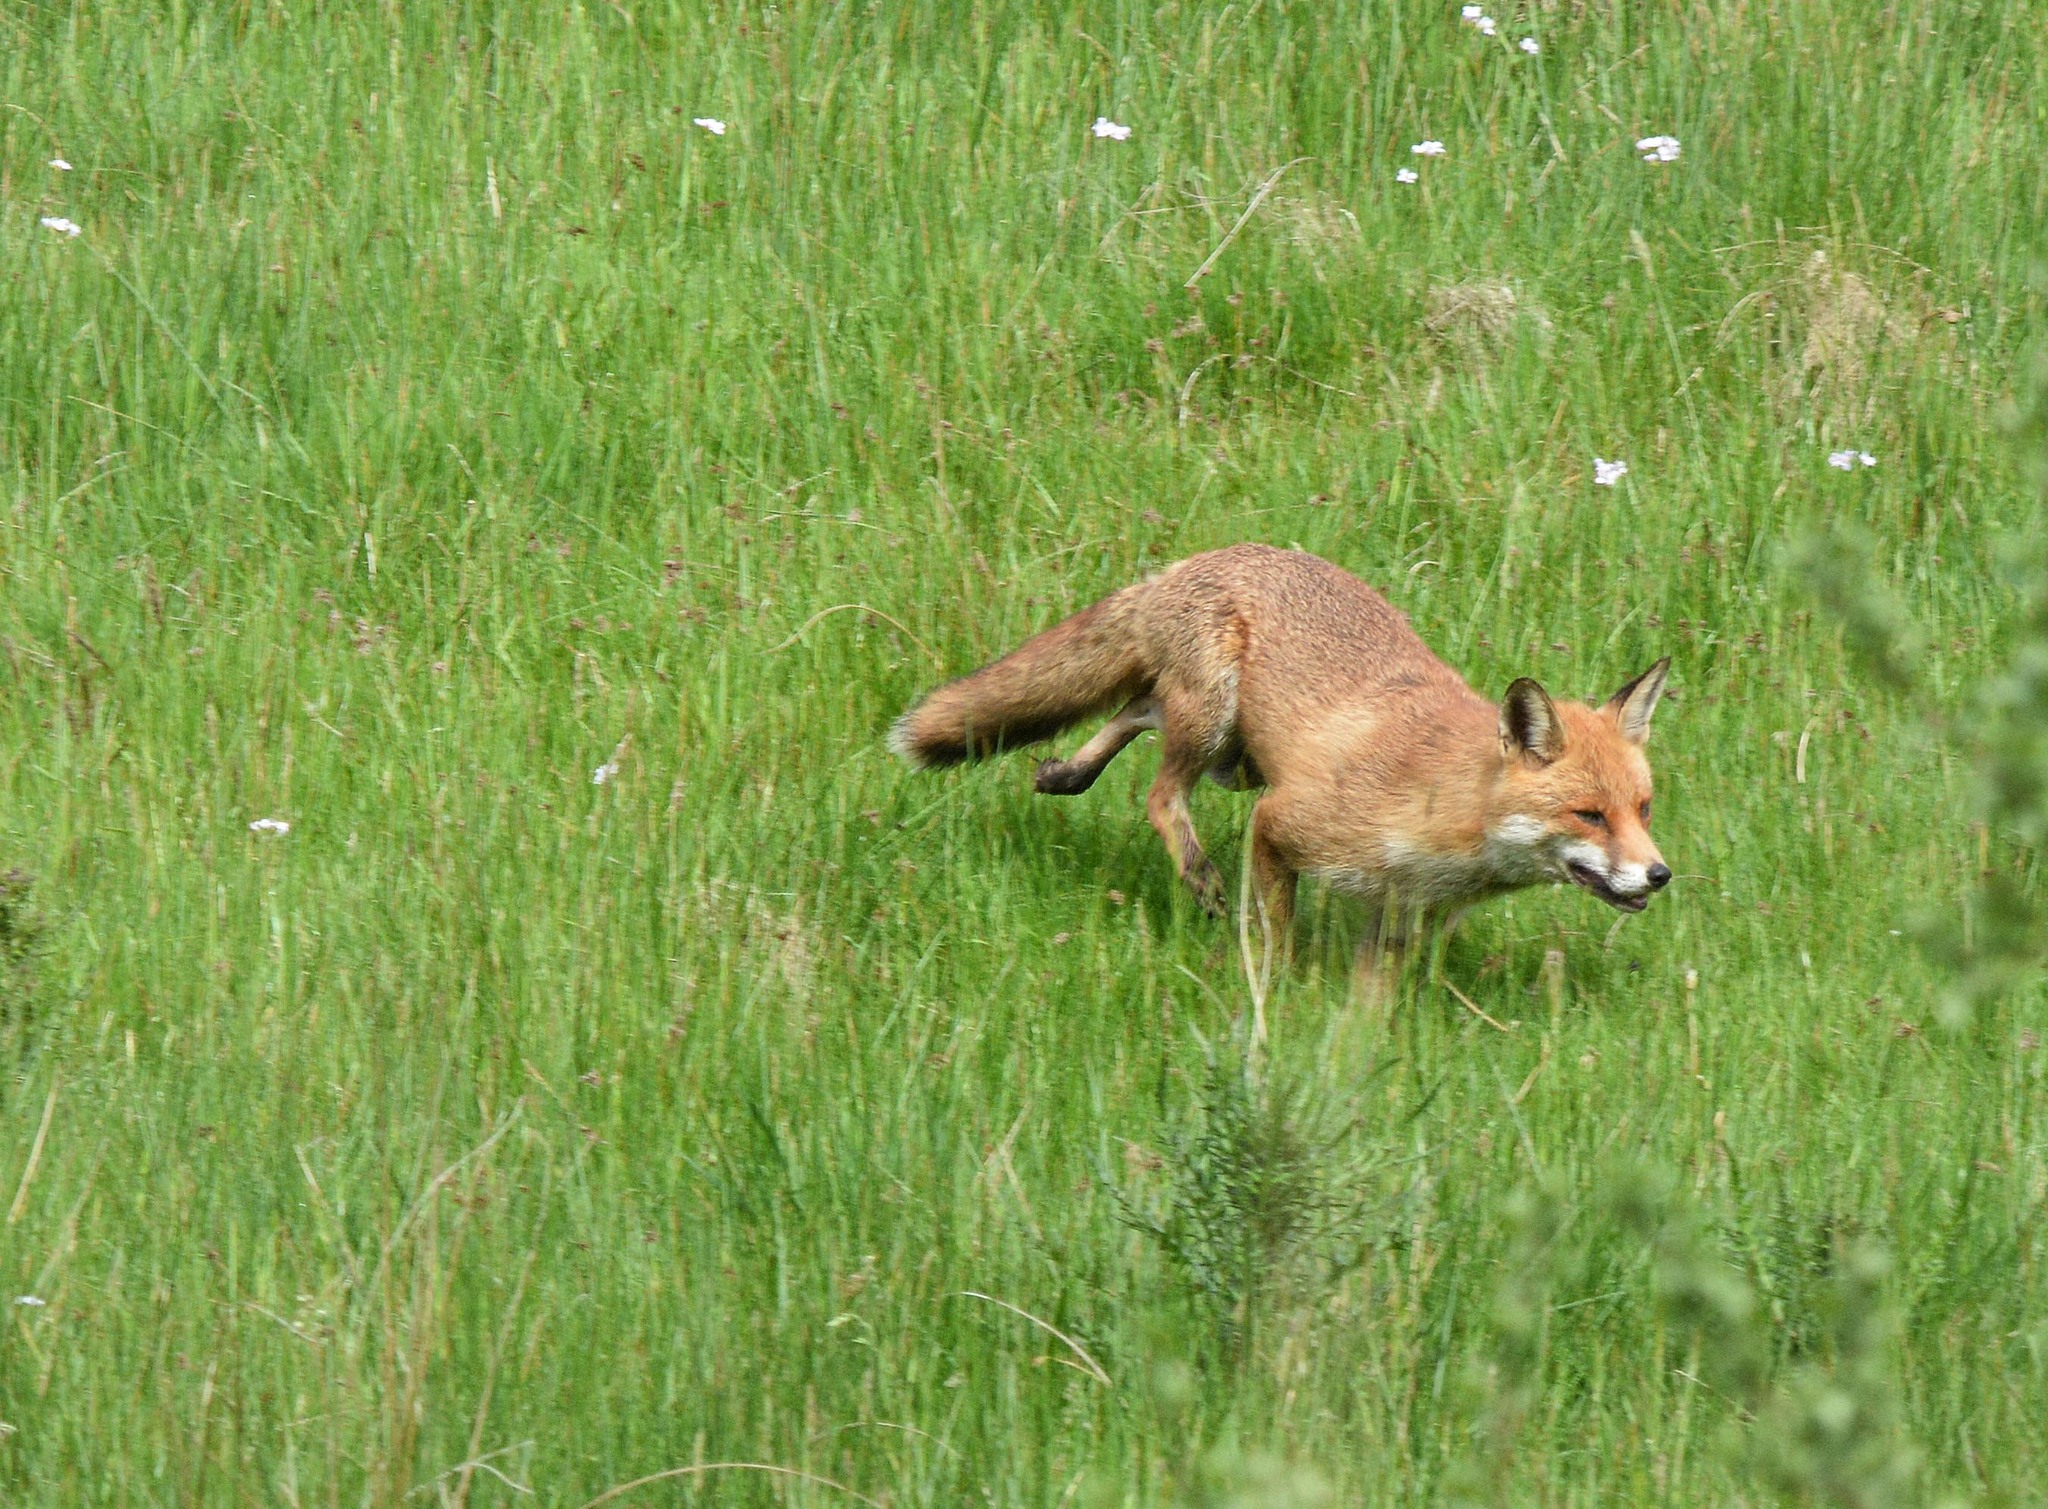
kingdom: Animalia
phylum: Chordata
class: Mammalia
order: Carnivora
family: Canidae
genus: Vulpes
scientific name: Vulpes vulpes
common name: Red fox
